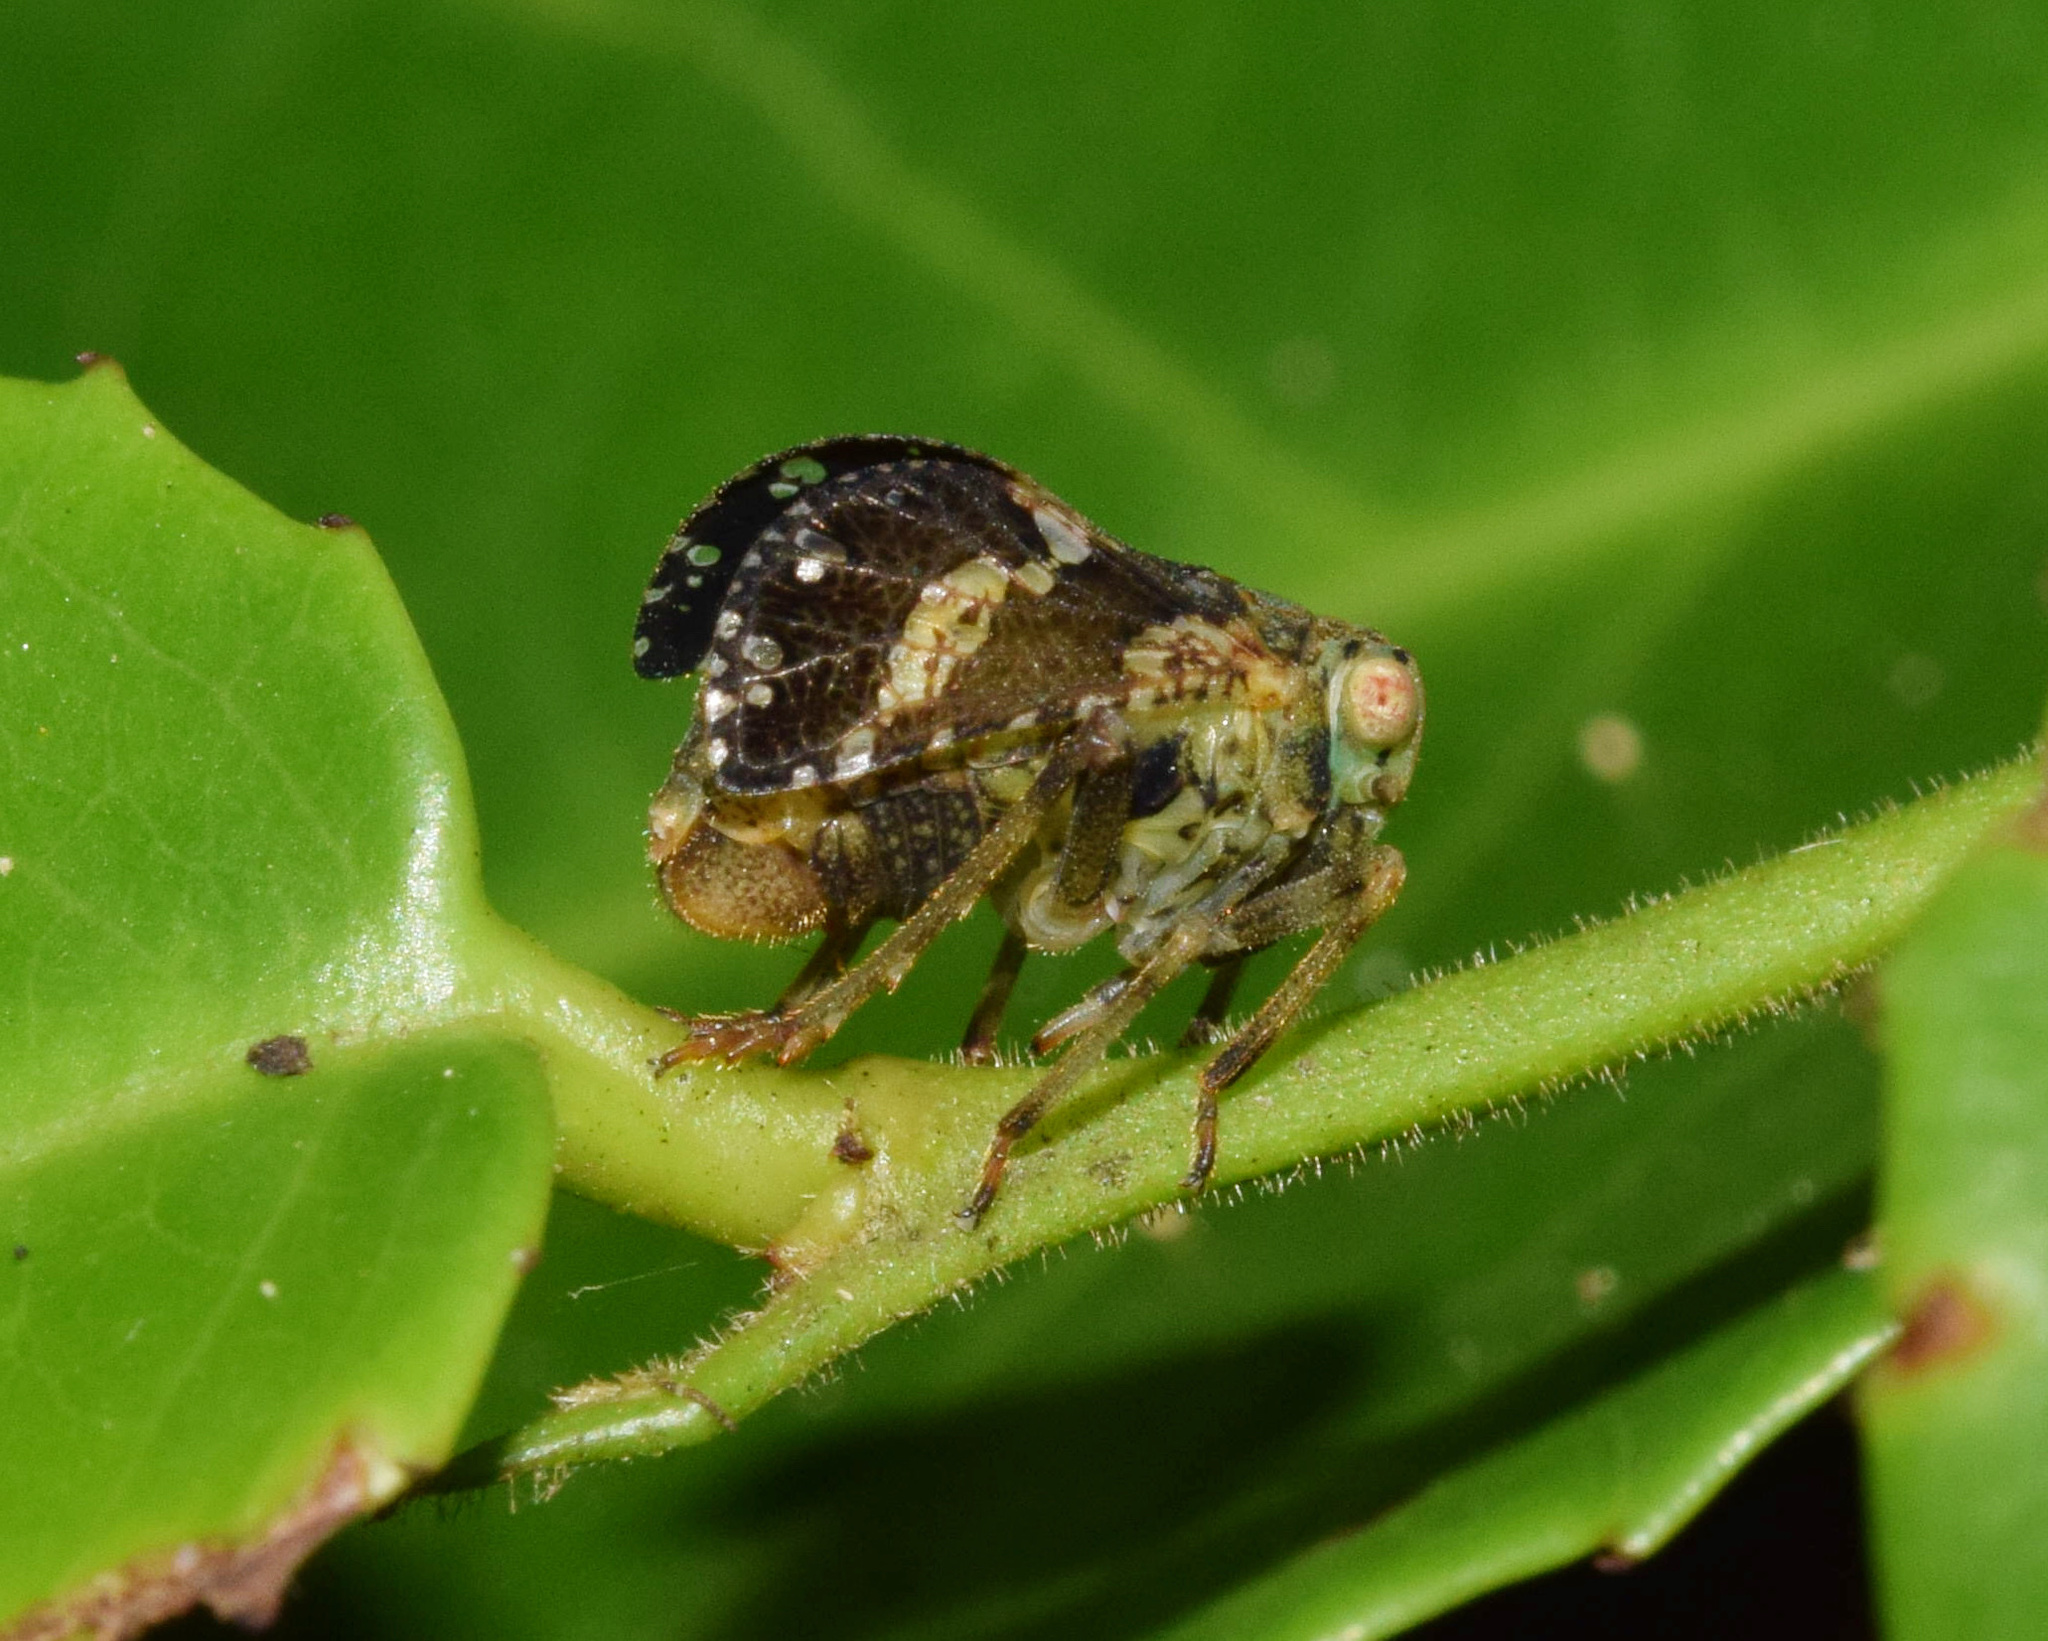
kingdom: Animalia
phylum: Arthropoda
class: Insecta
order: Hemiptera
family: Tropiduchidae
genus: Gamergus
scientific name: Gamergus hessei
